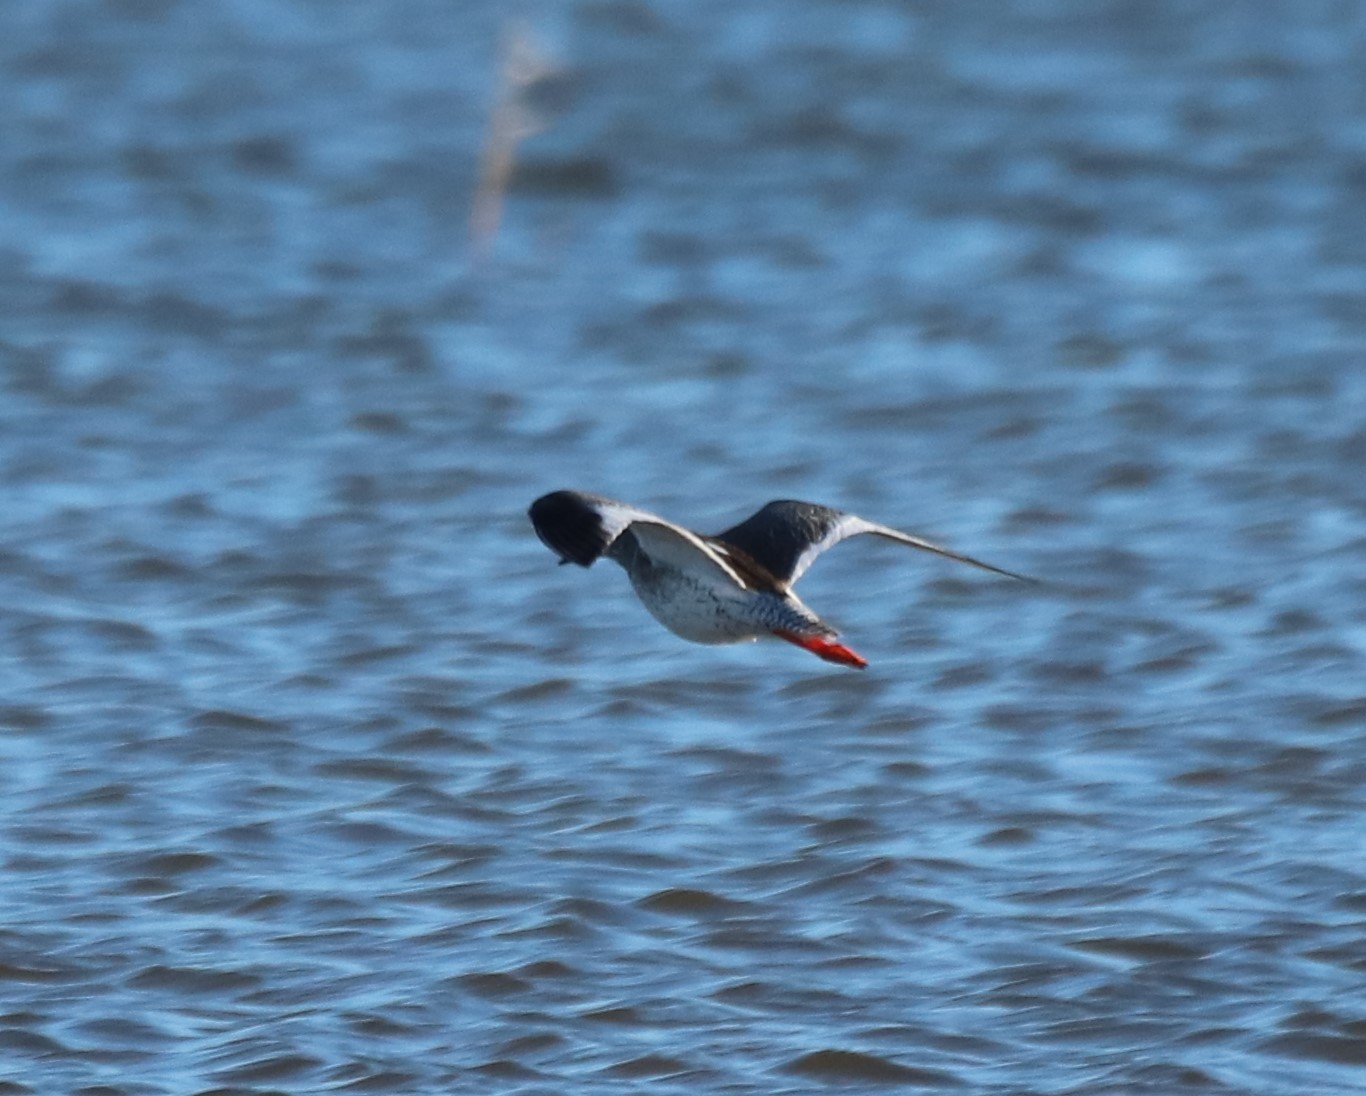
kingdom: Animalia
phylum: Chordata
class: Aves
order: Charadriiformes
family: Scolopacidae
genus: Tringa
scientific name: Tringa totanus
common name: Common redshank
